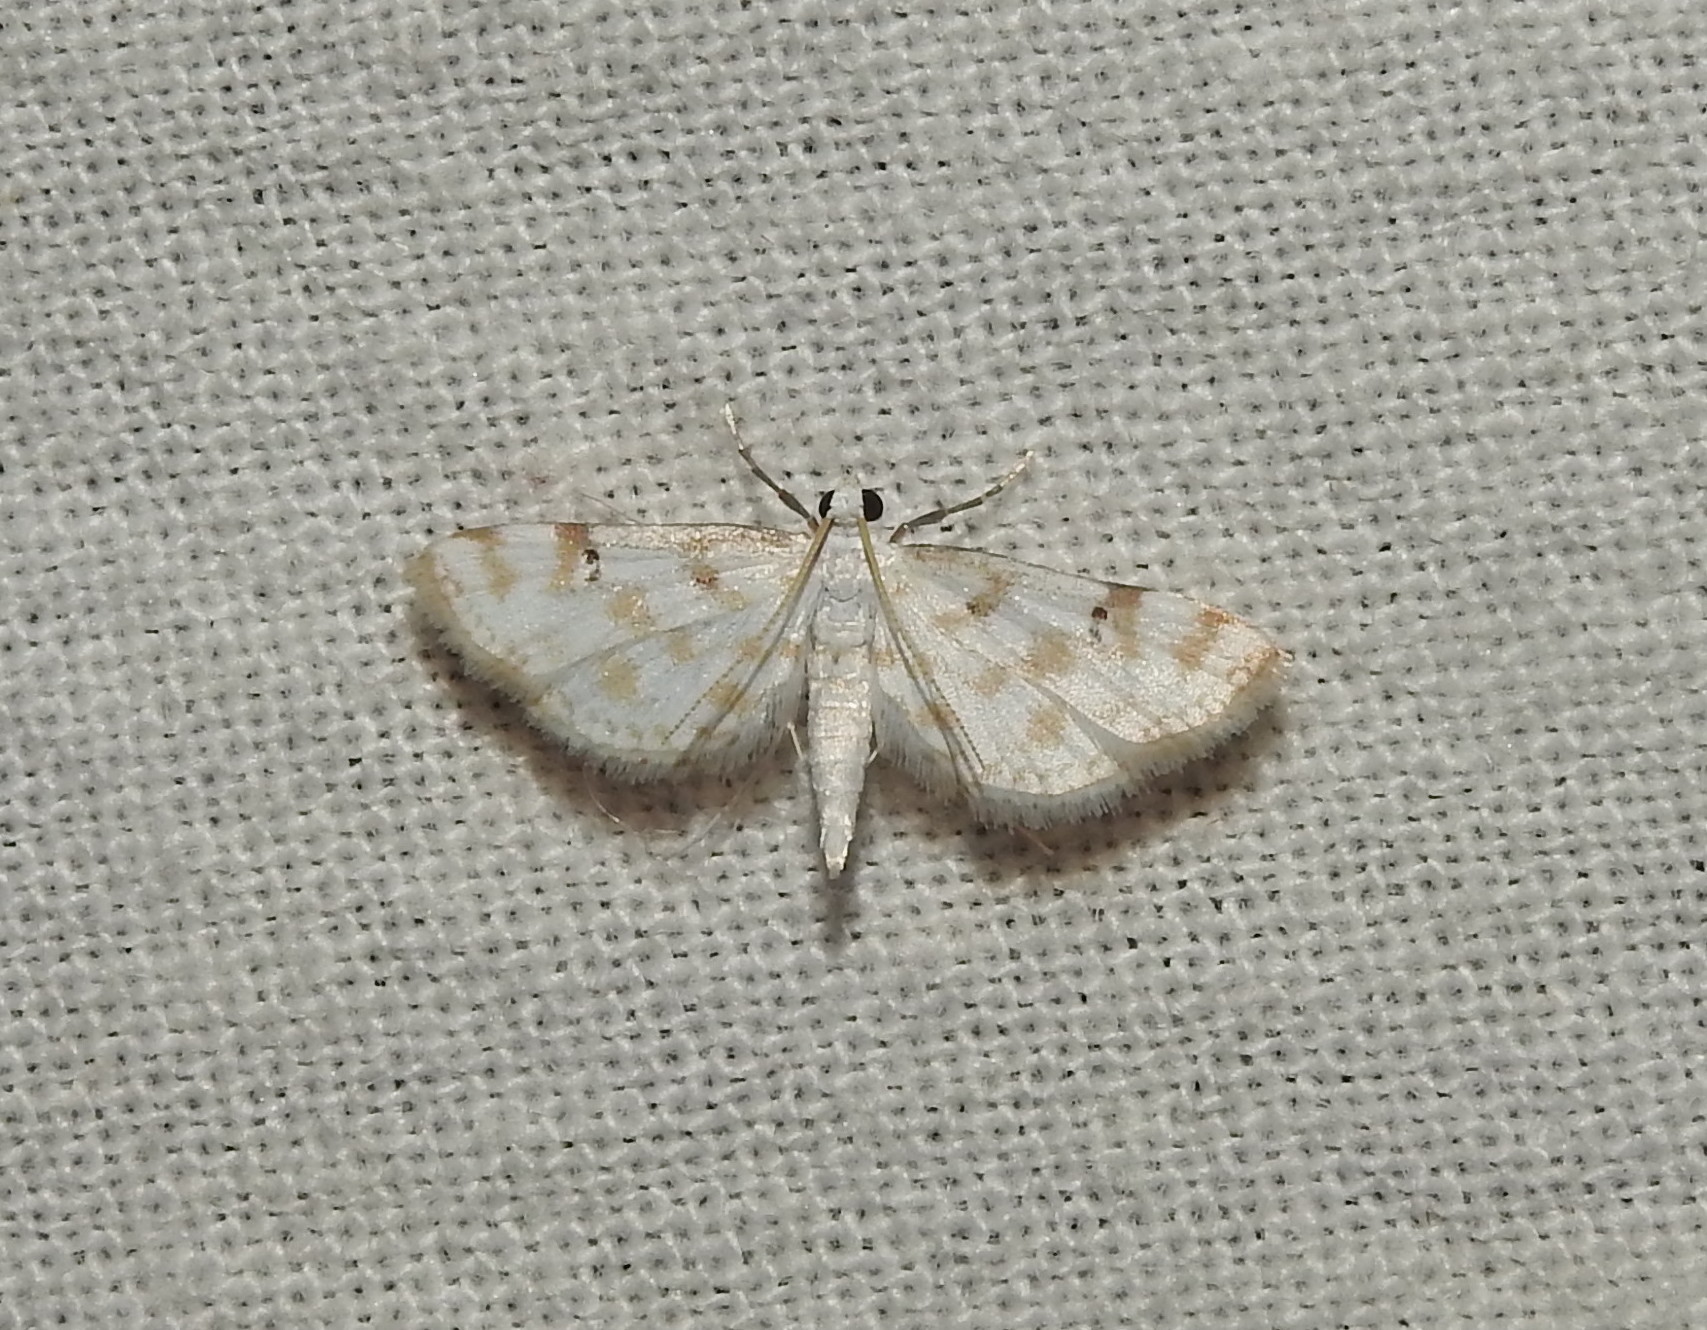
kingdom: Animalia
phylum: Arthropoda
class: Insecta
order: Lepidoptera
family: Crambidae
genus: Parapoynx
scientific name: Parapoynx stagnalis
